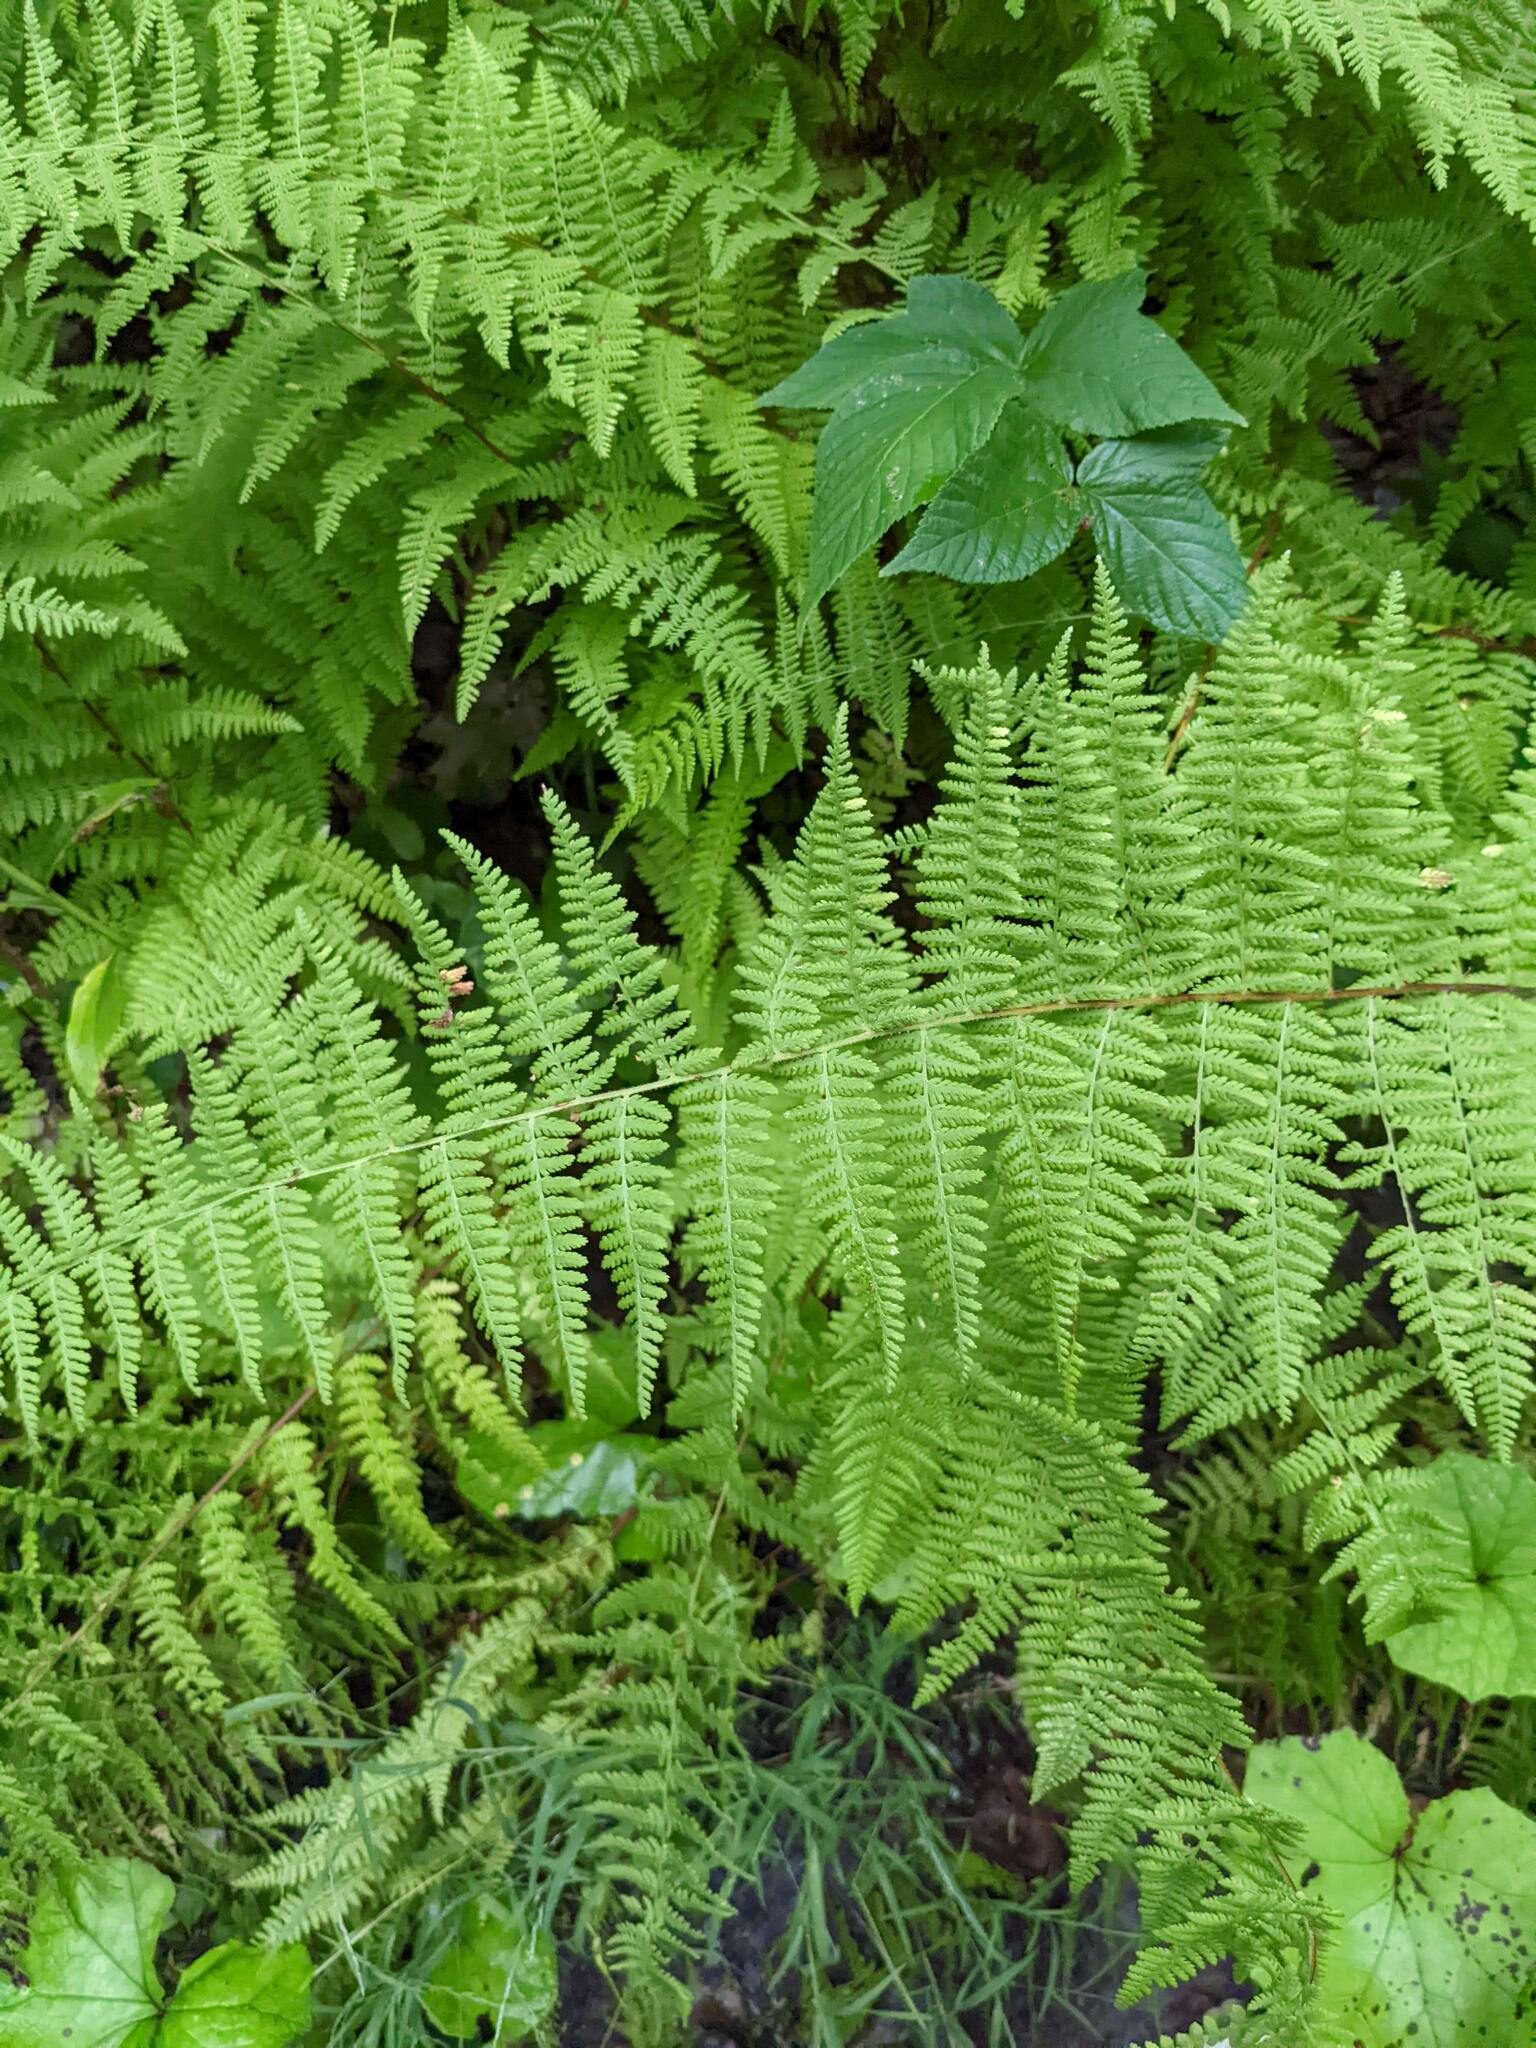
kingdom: Plantae
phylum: Tracheophyta
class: Polypodiopsida
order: Polypodiales
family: Dennstaedtiaceae
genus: Sitobolium
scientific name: Sitobolium punctilobum
